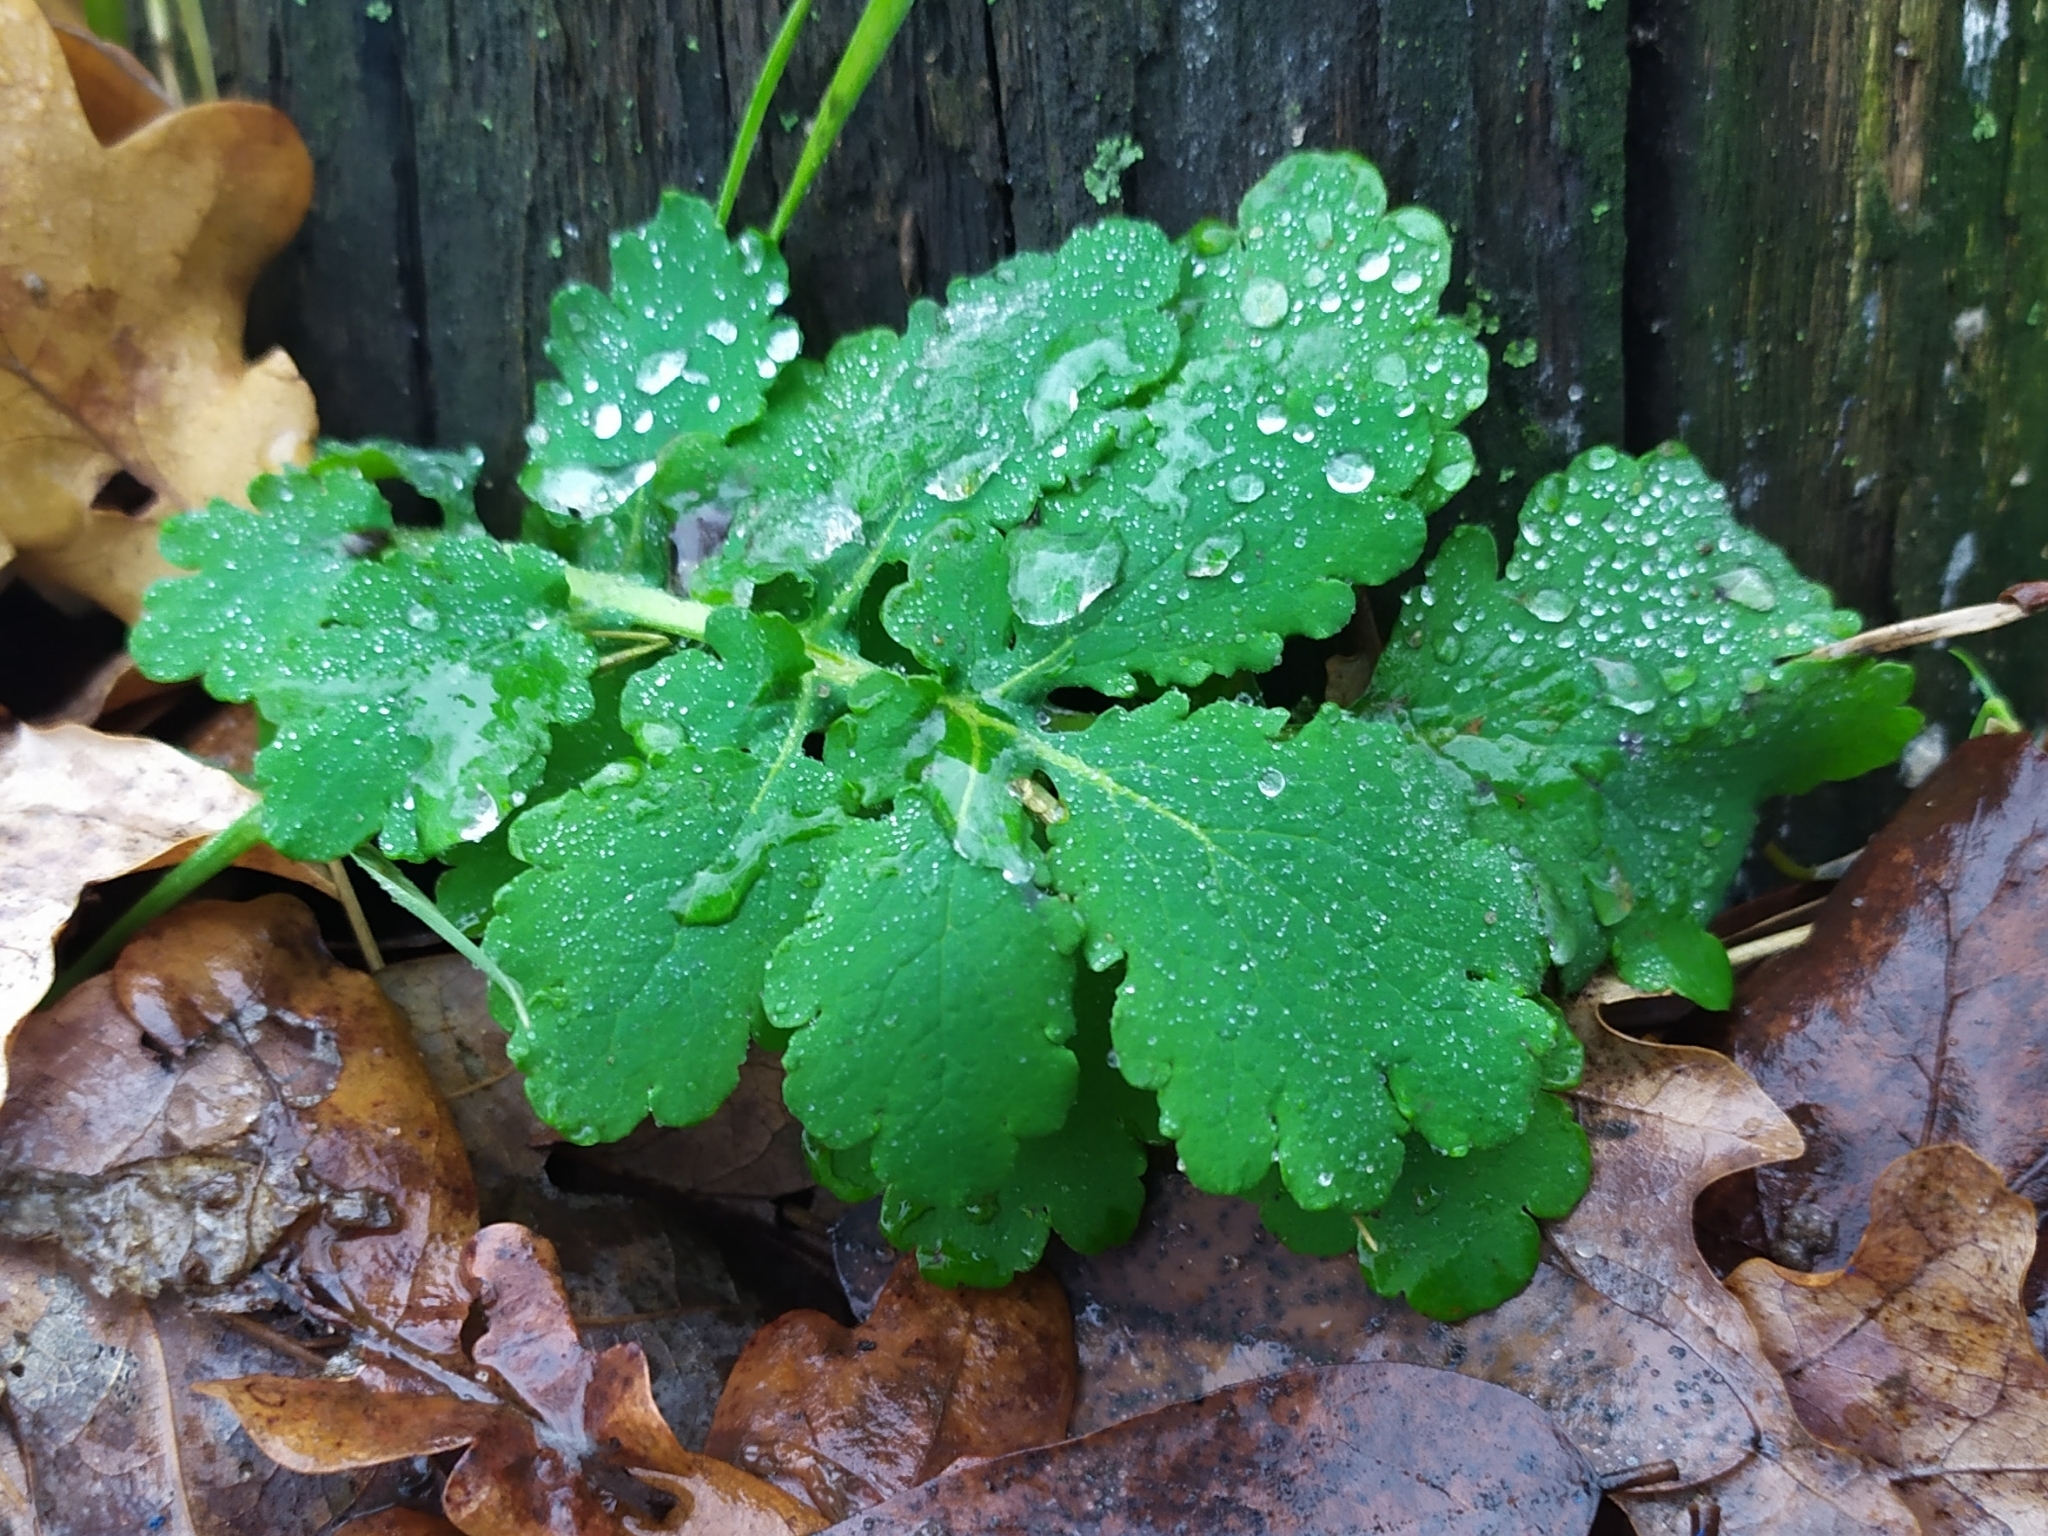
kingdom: Plantae
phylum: Tracheophyta
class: Magnoliopsida
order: Ranunculales
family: Papaveraceae
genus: Chelidonium
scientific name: Chelidonium majus
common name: Greater celandine
